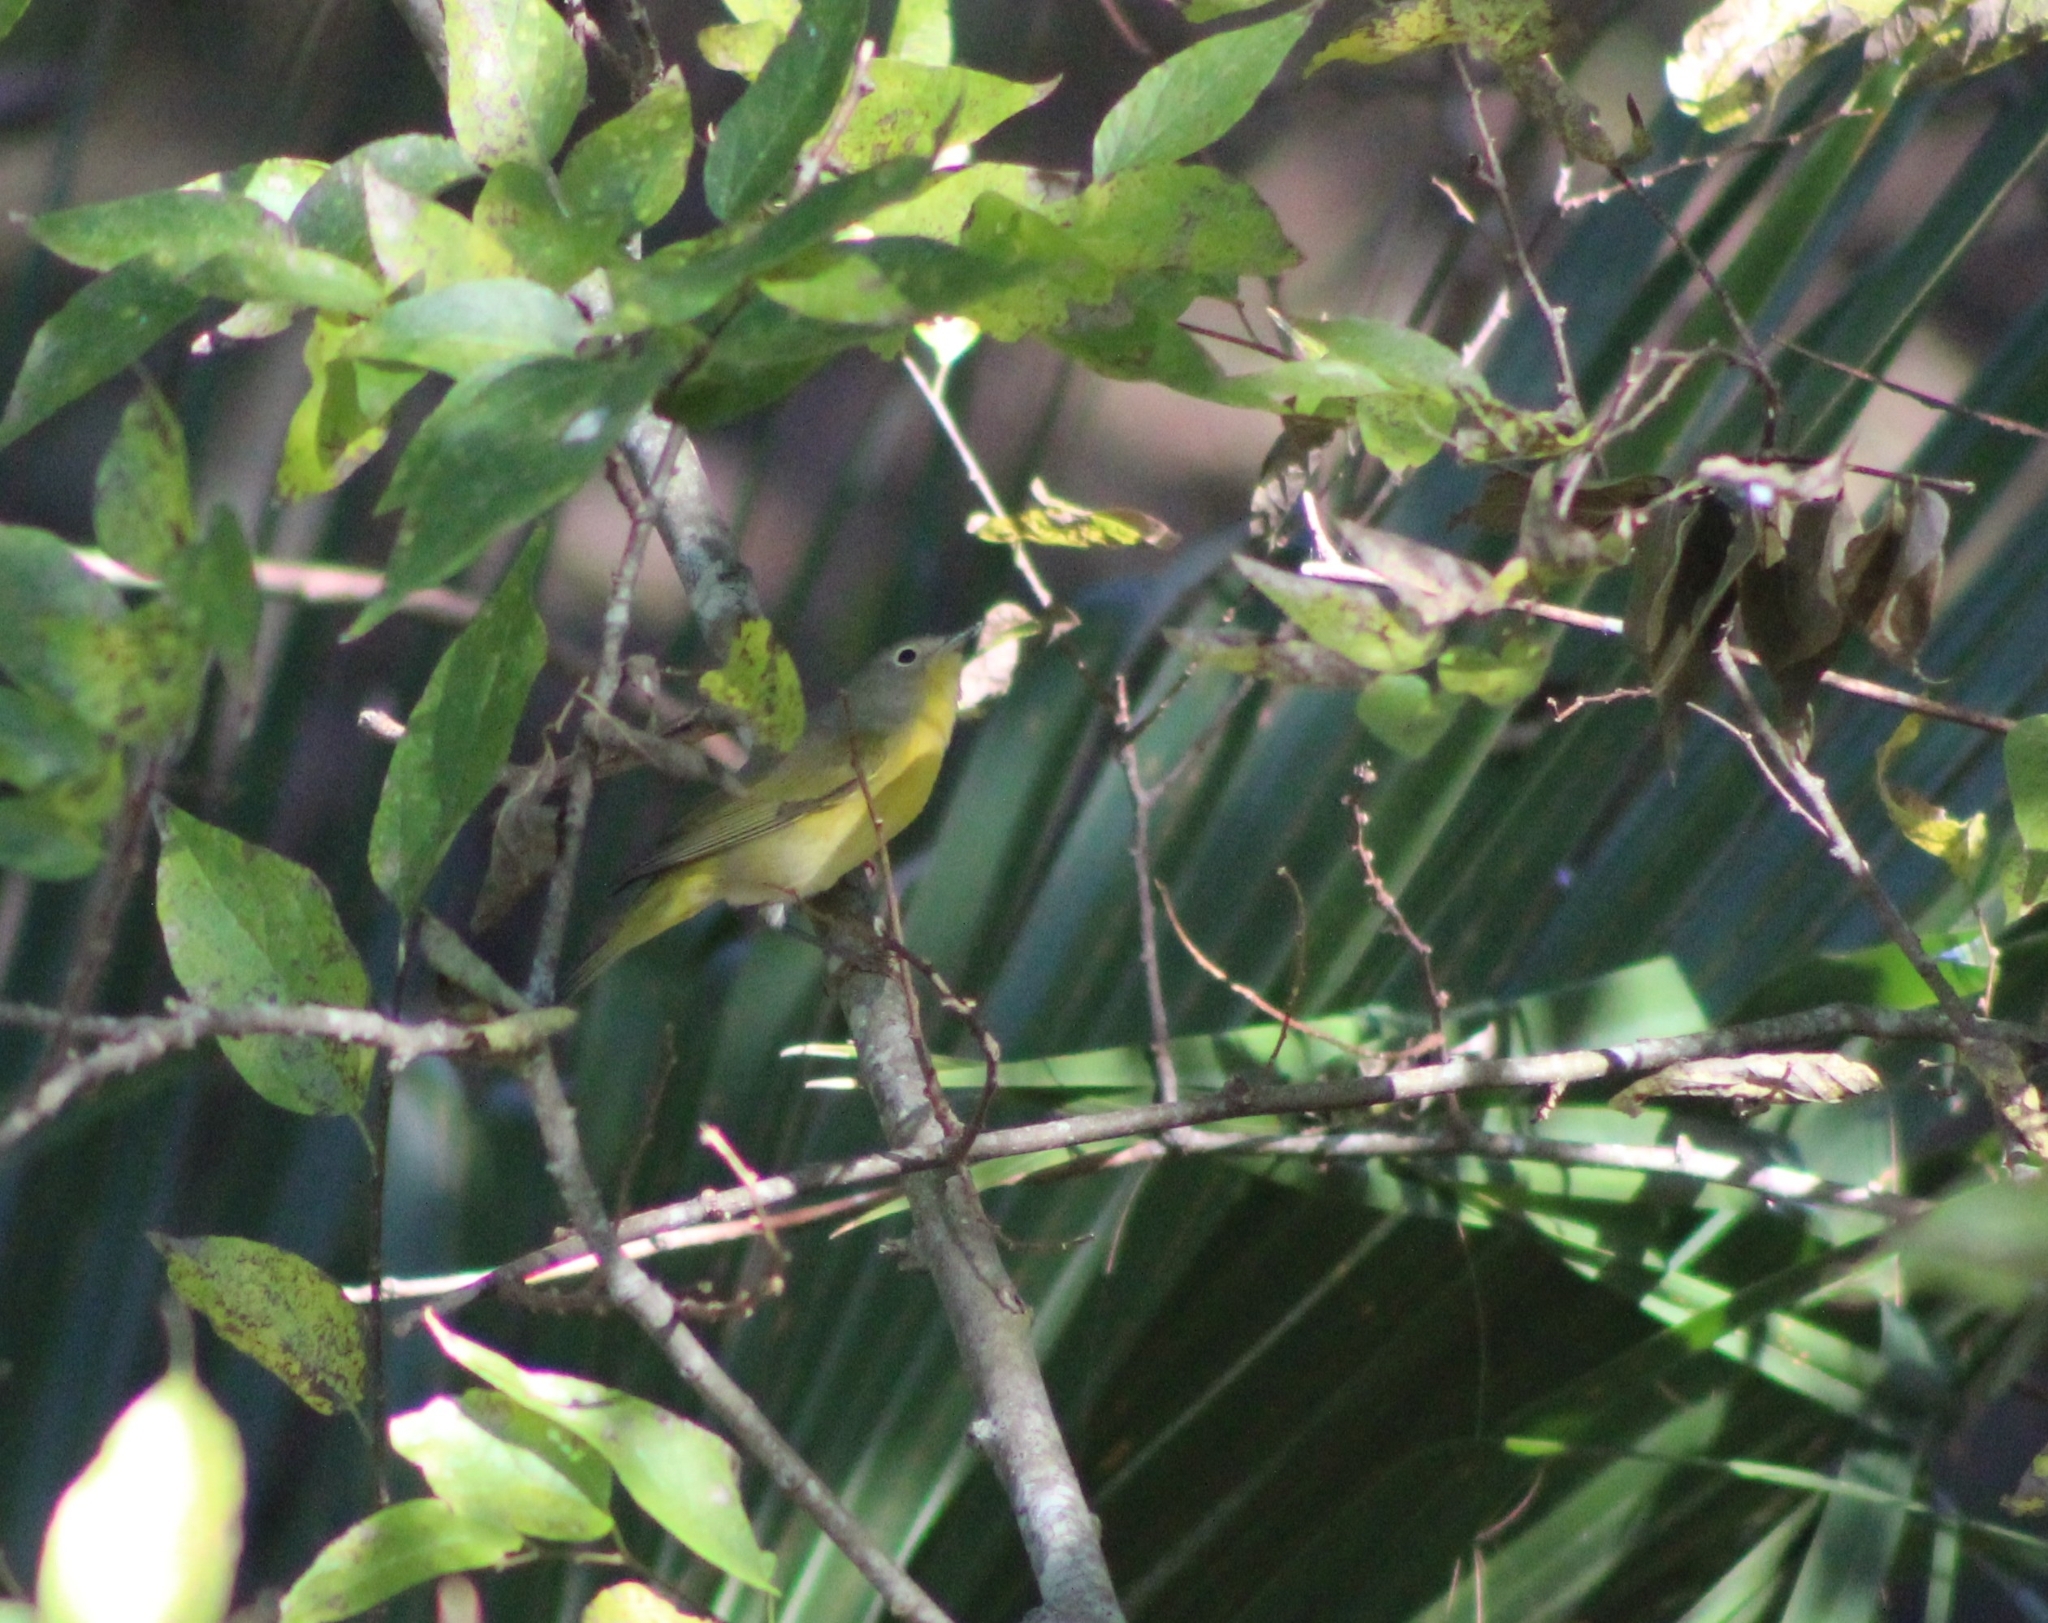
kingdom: Animalia
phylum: Chordata
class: Aves
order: Passeriformes
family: Parulidae
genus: Leiothlypis
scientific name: Leiothlypis ruficapilla
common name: Nashville warbler
